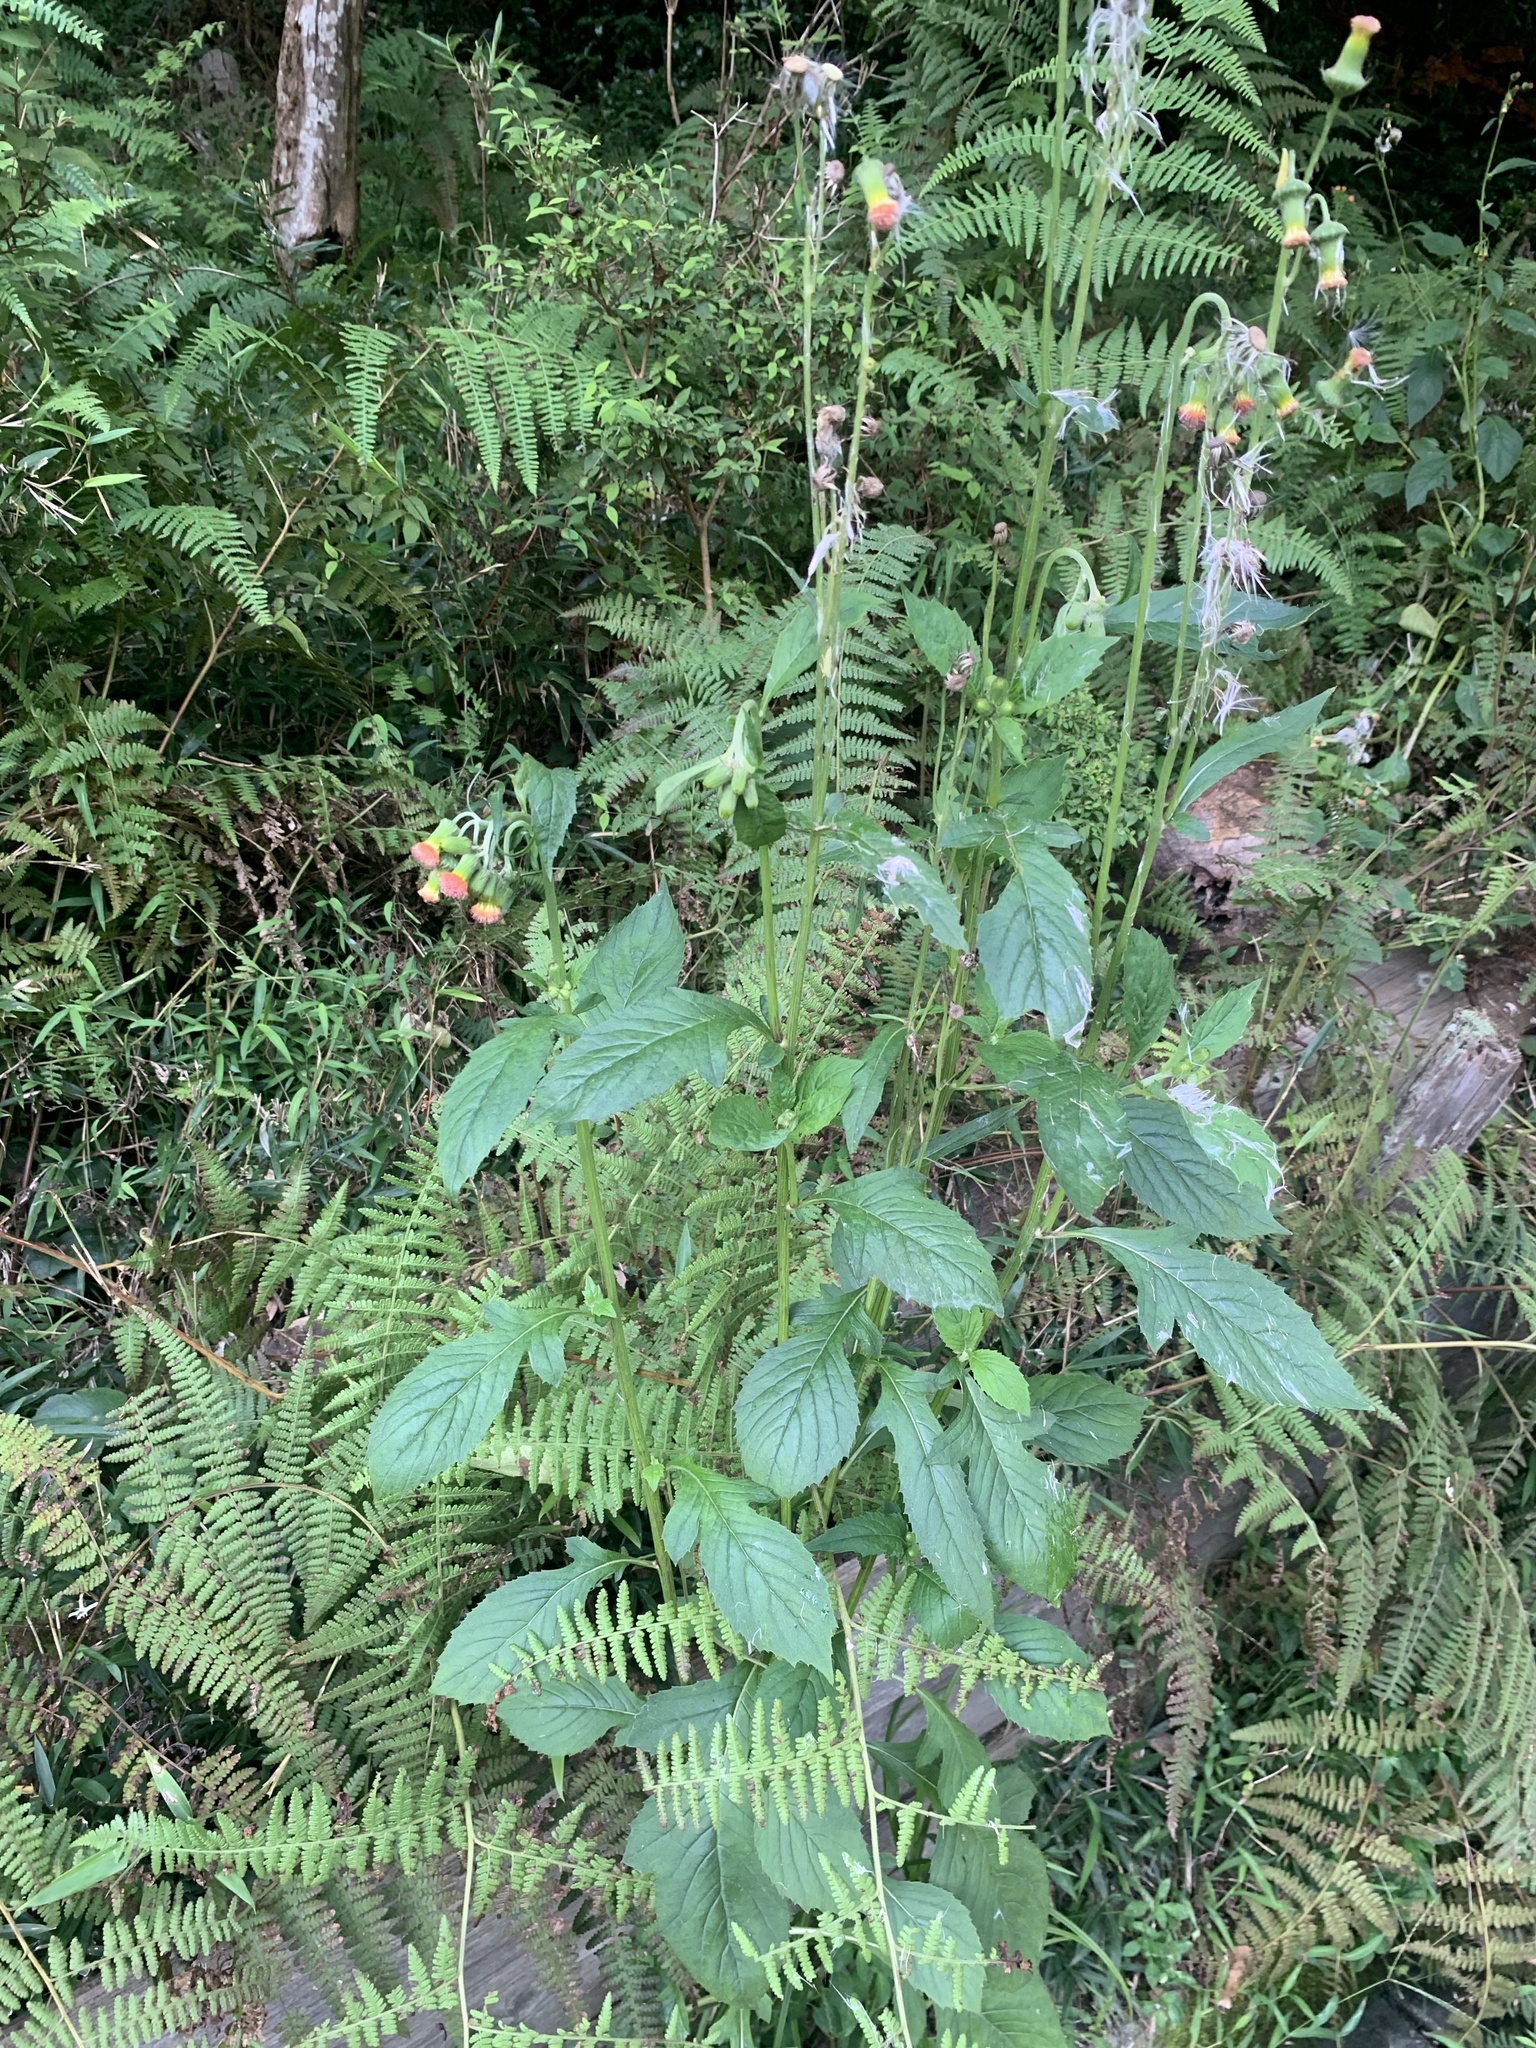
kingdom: Plantae
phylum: Tracheophyta
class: Magnoliopsida
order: Asterales
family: Asteraceae
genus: Crassocephalum
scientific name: Crassocephalum crepidioides
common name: Redflower ragleaf
